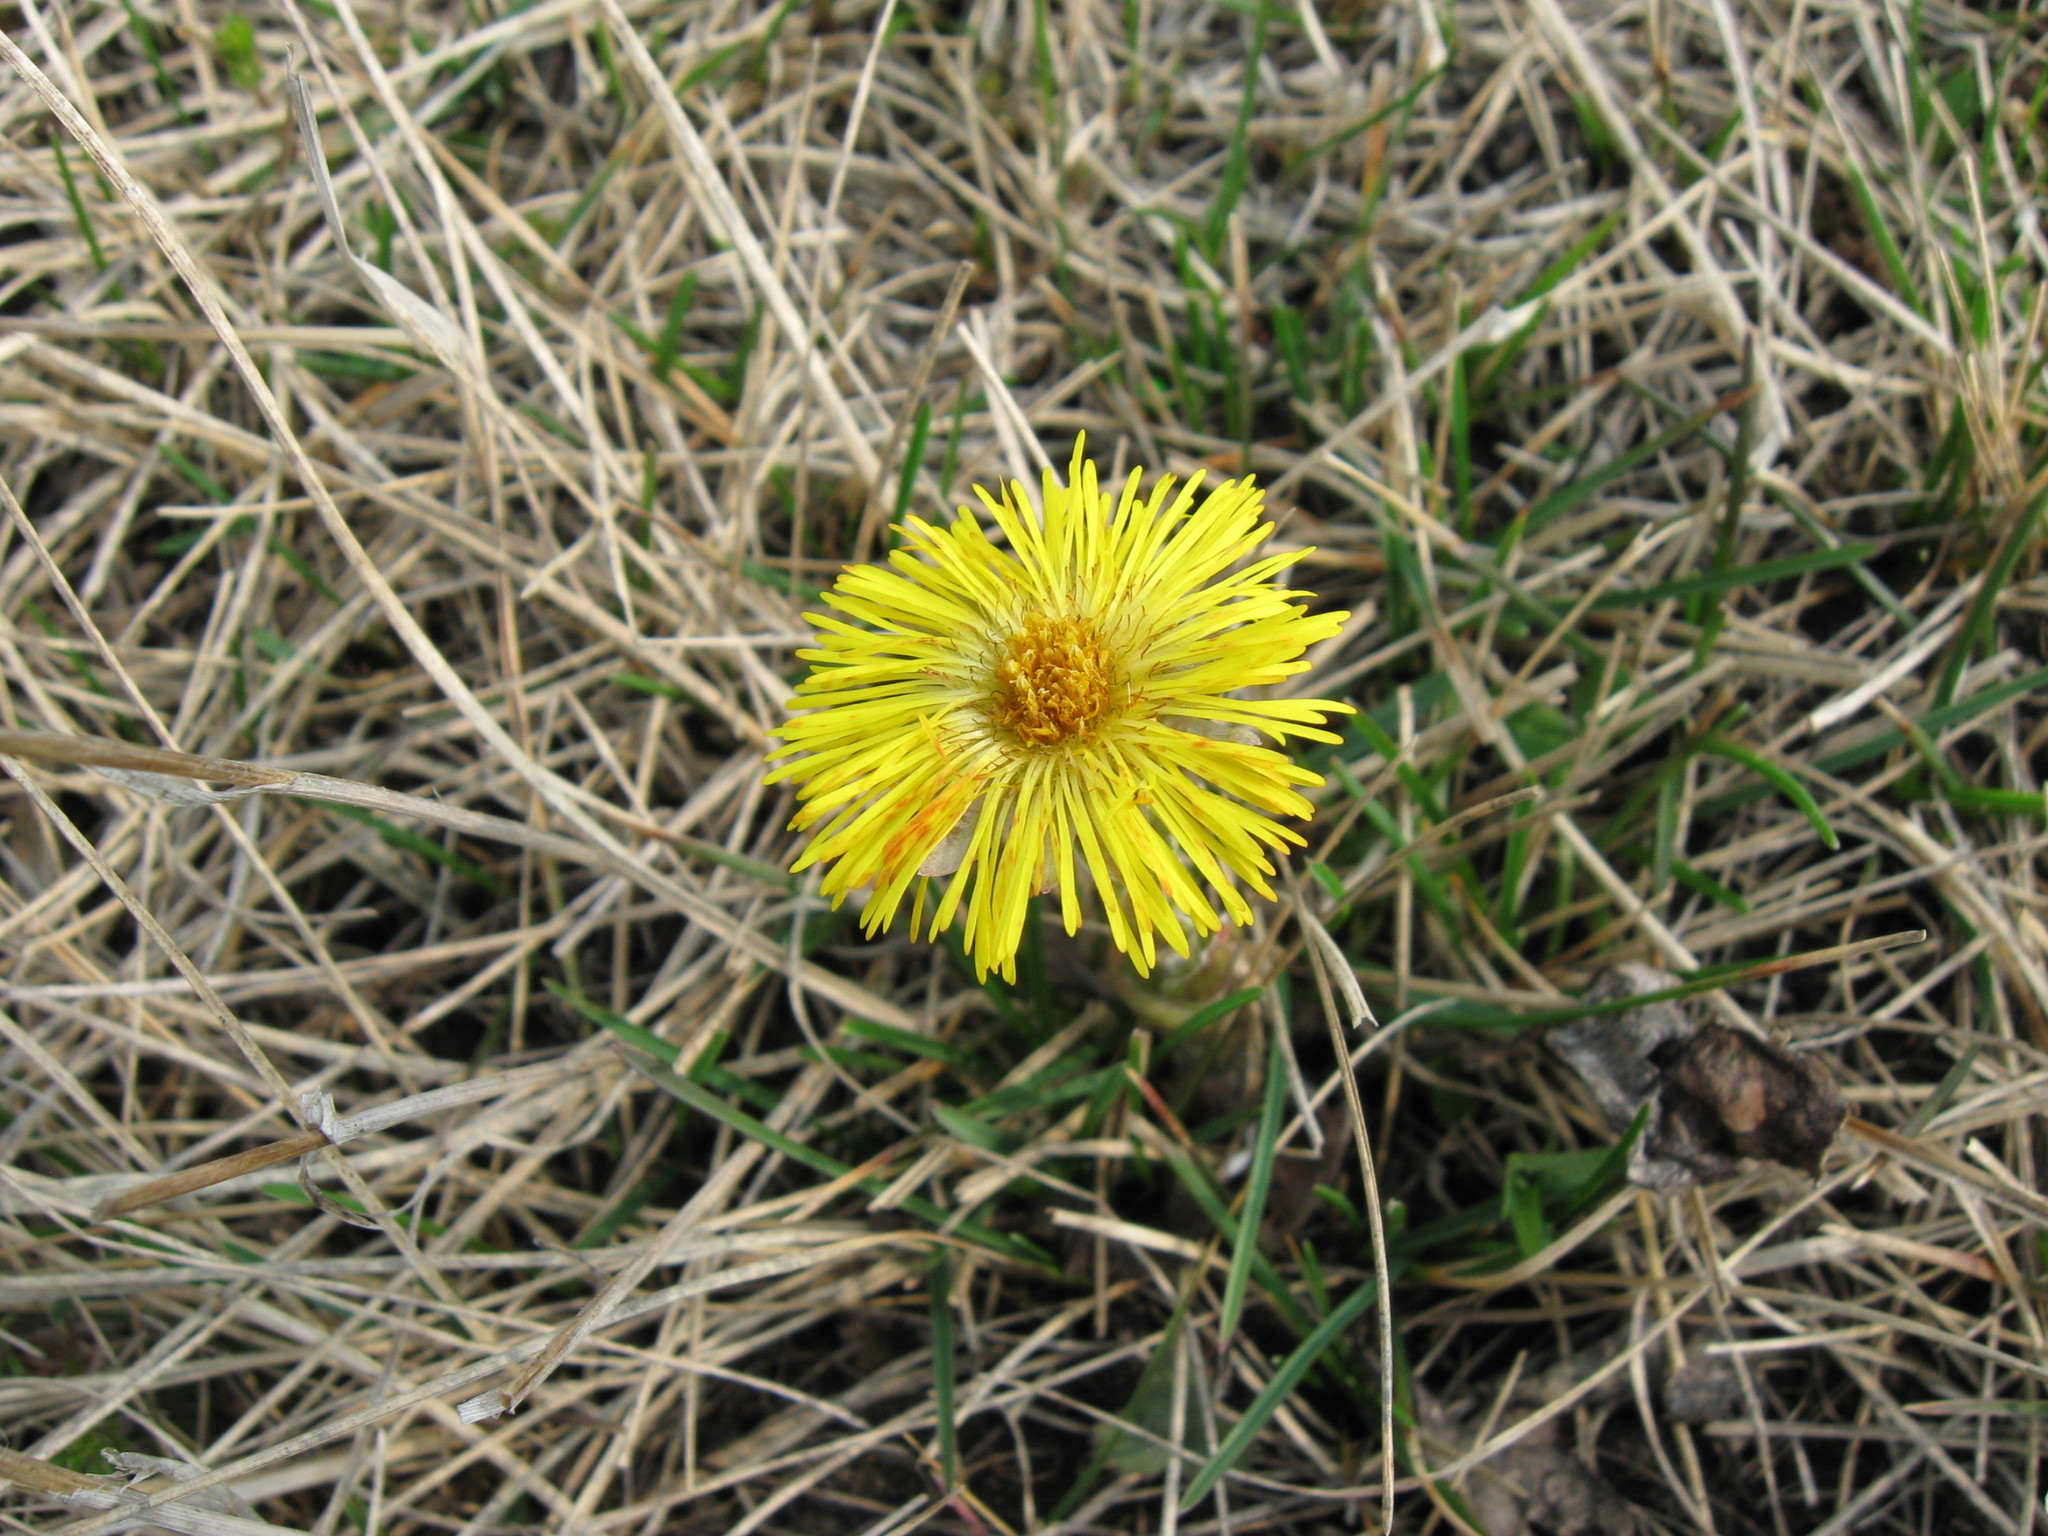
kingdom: Plantae
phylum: Tracheophyta
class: Magnoliopsida
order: Asterales
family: Asteraceae
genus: Tussilago
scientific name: Tussilago farfara
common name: Coltsfoot
